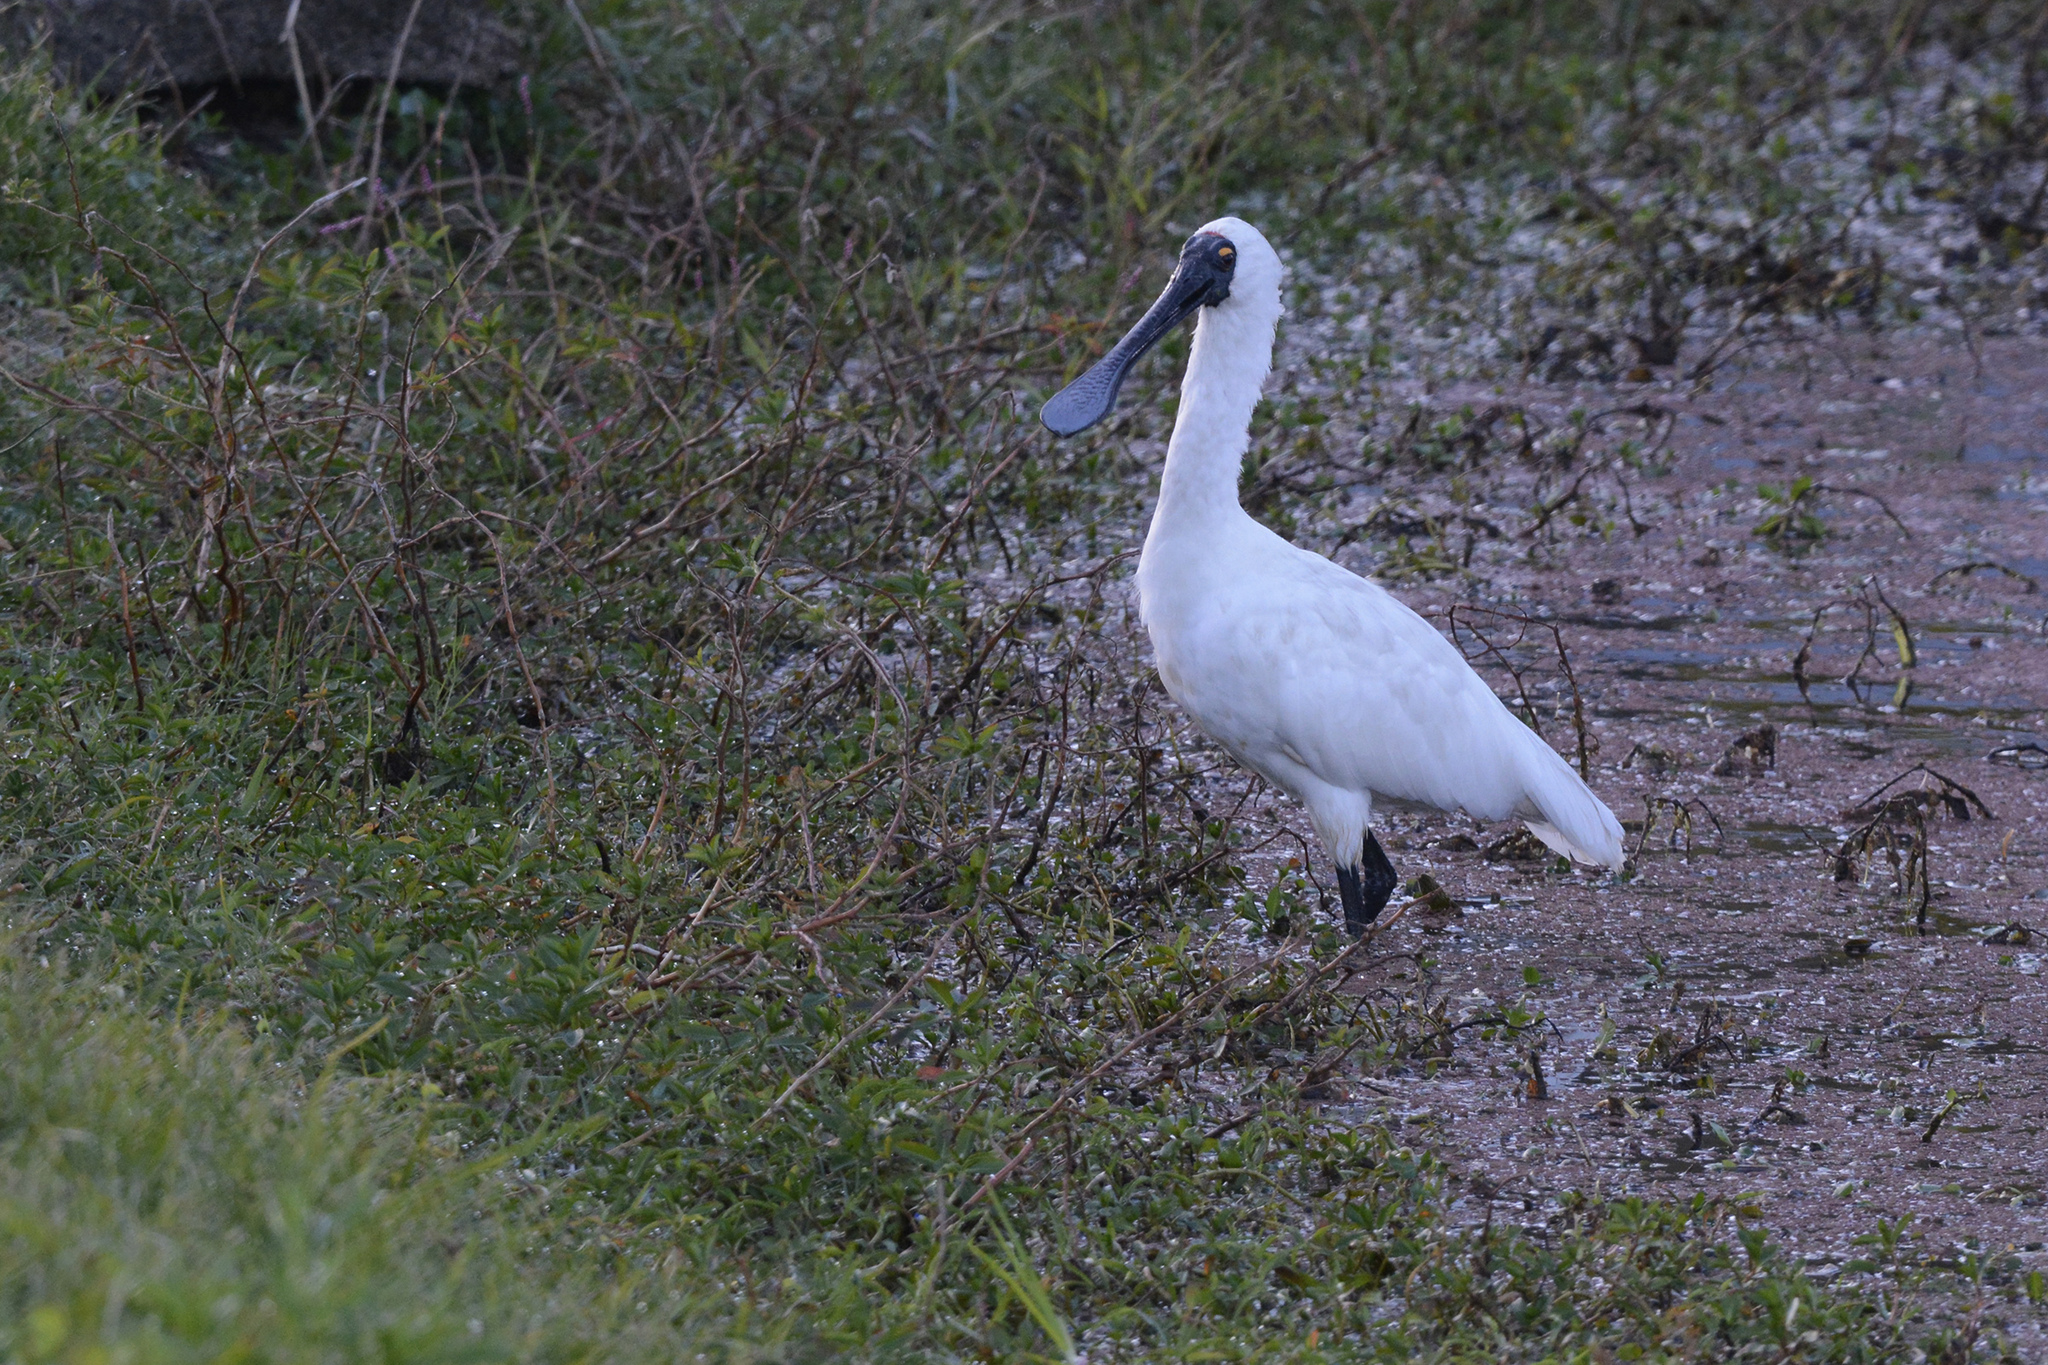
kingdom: Animalia
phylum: Chordata
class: Aves
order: Pelecaniformes
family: Threskiornithidae
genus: Platalea
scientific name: Platalea regia
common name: Royal spoonbill
